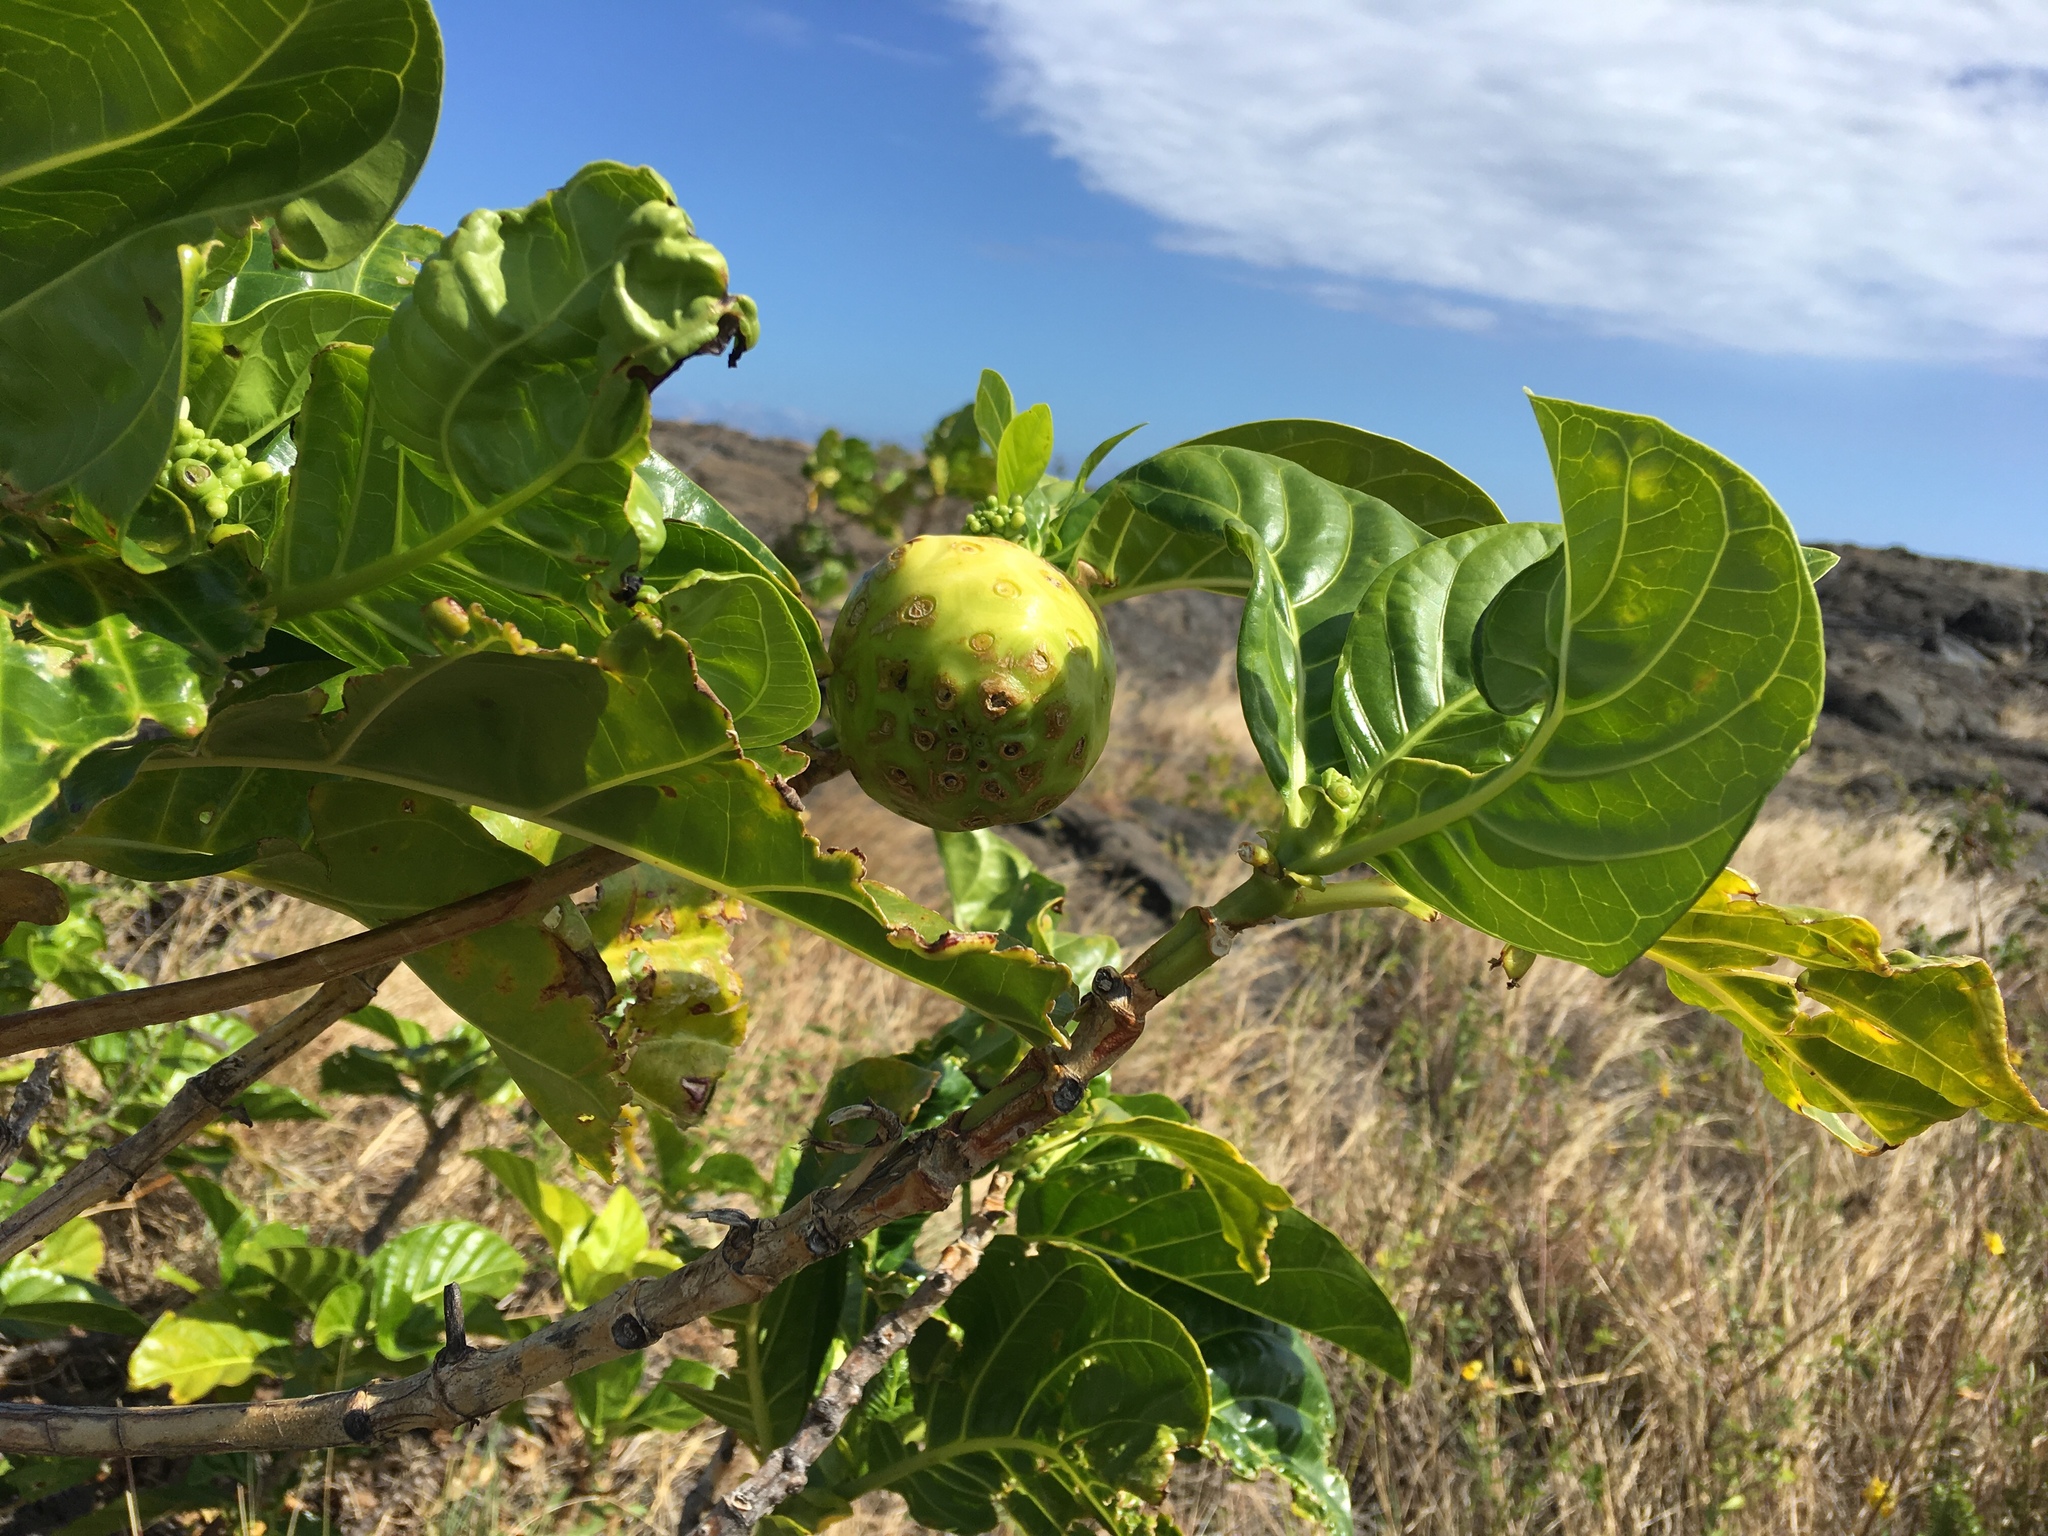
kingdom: Plantae
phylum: Tracheophyta
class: Magnoliopsida
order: Gentianales
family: Rubiaceae
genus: Morinda
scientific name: Morinda citrifolia
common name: Indian-mulberry
